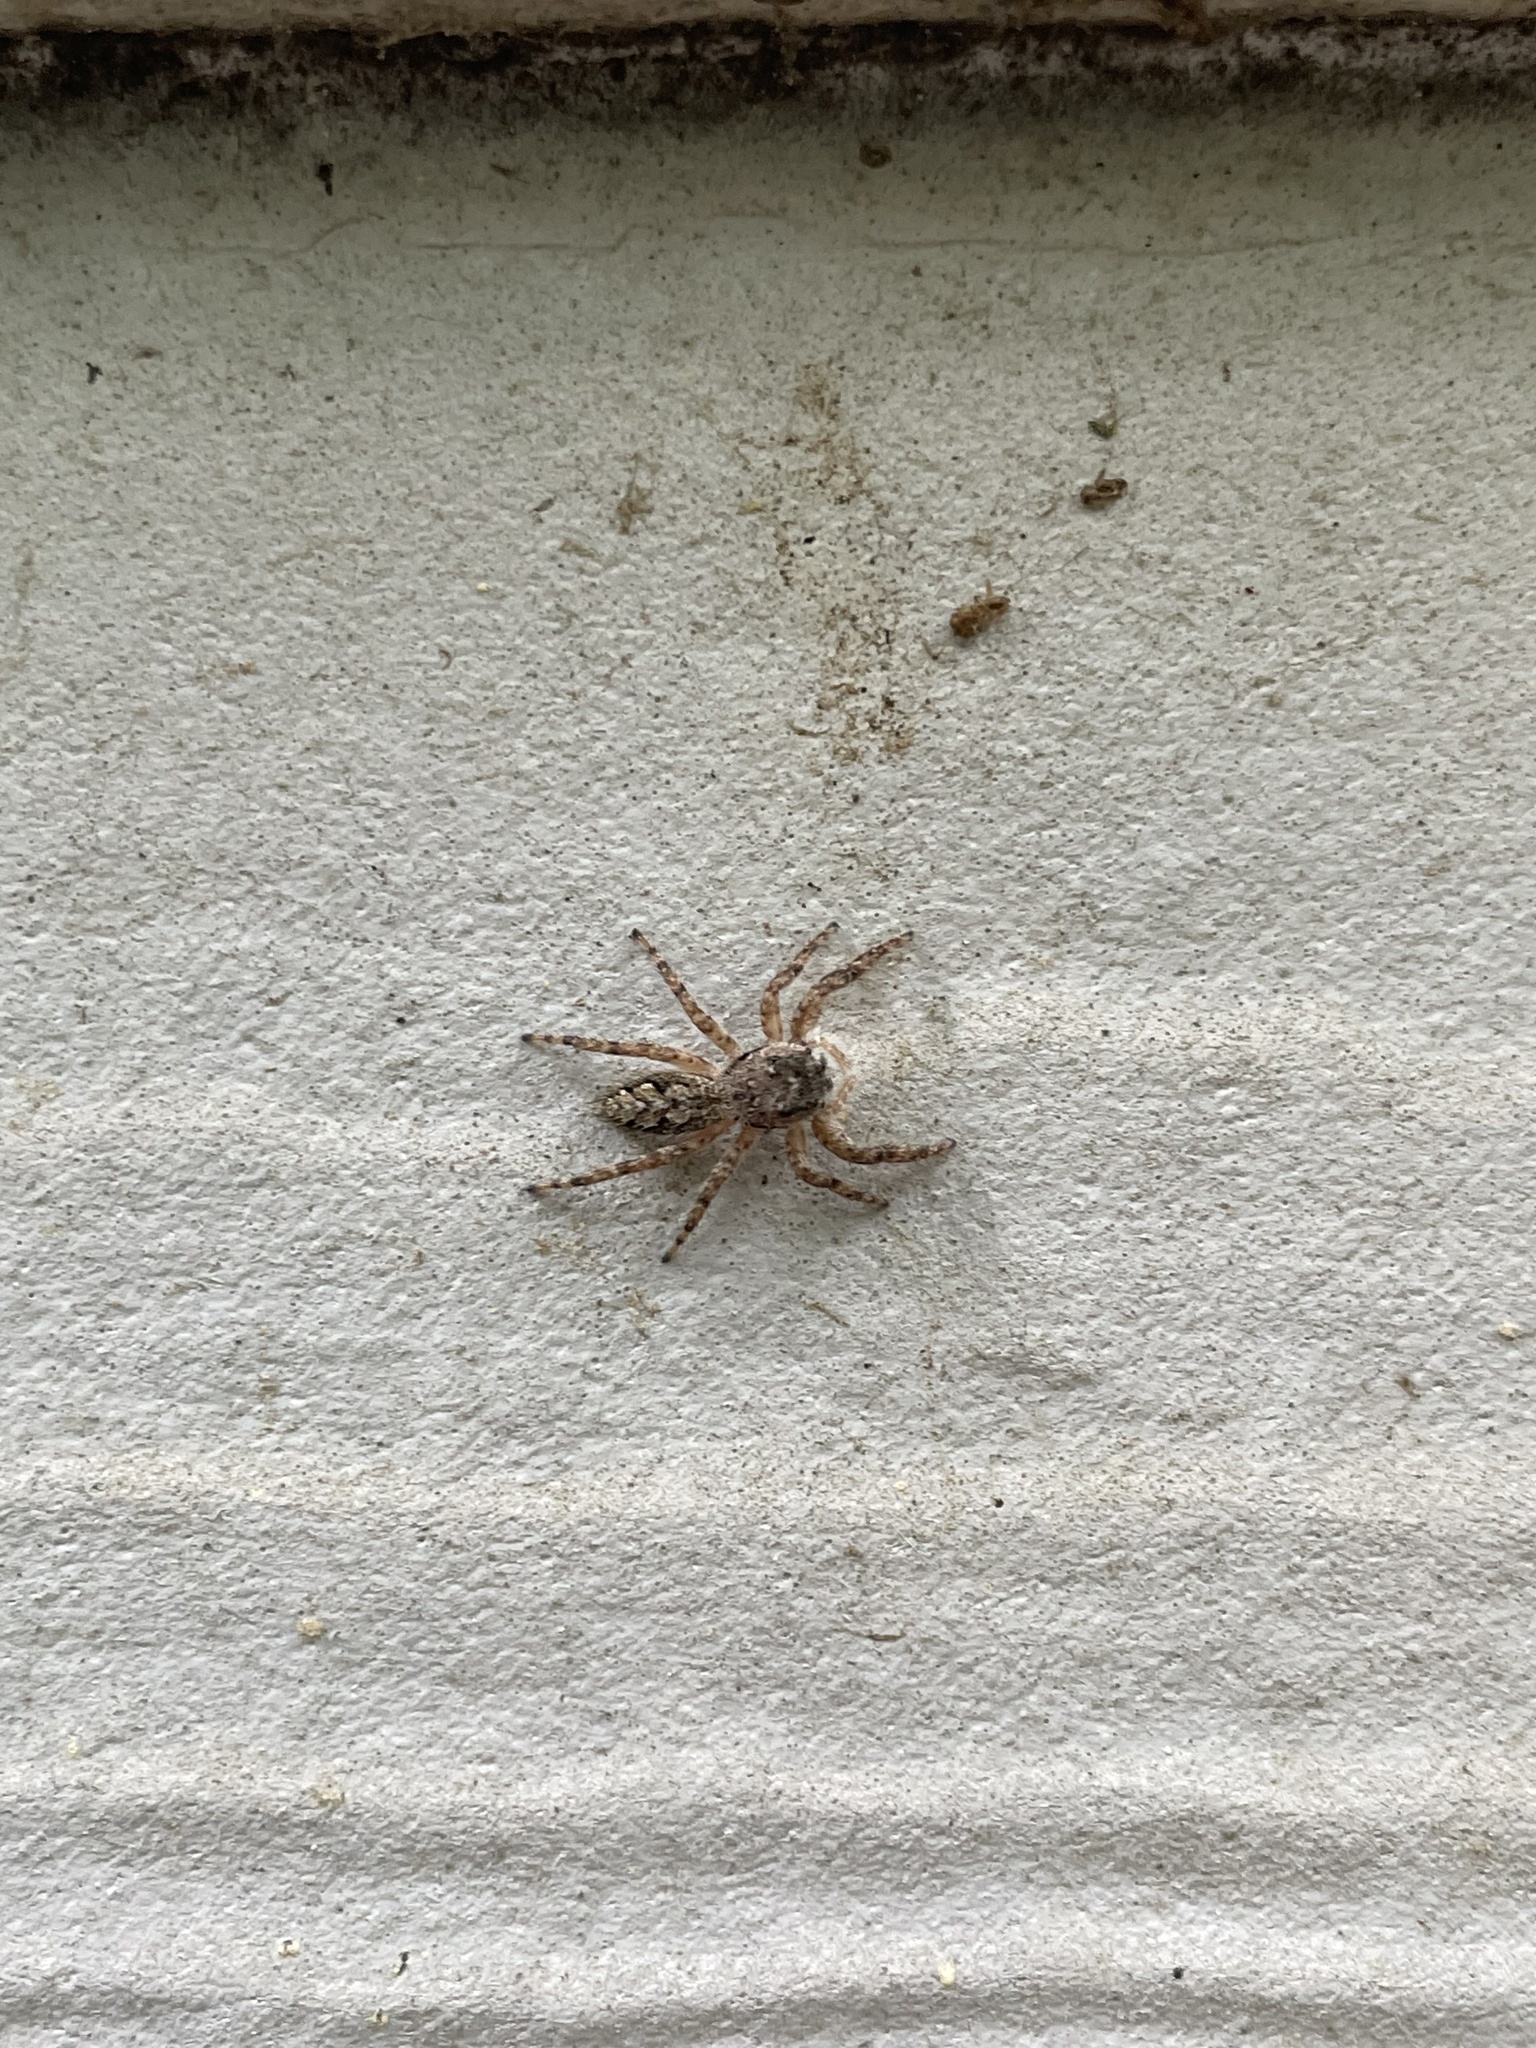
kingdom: Animalia
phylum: Arthropoda
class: Arachnida
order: Araneae
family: Salticidae
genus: Platycryptus
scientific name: Platycryptus undatus
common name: Tan jumping spider
